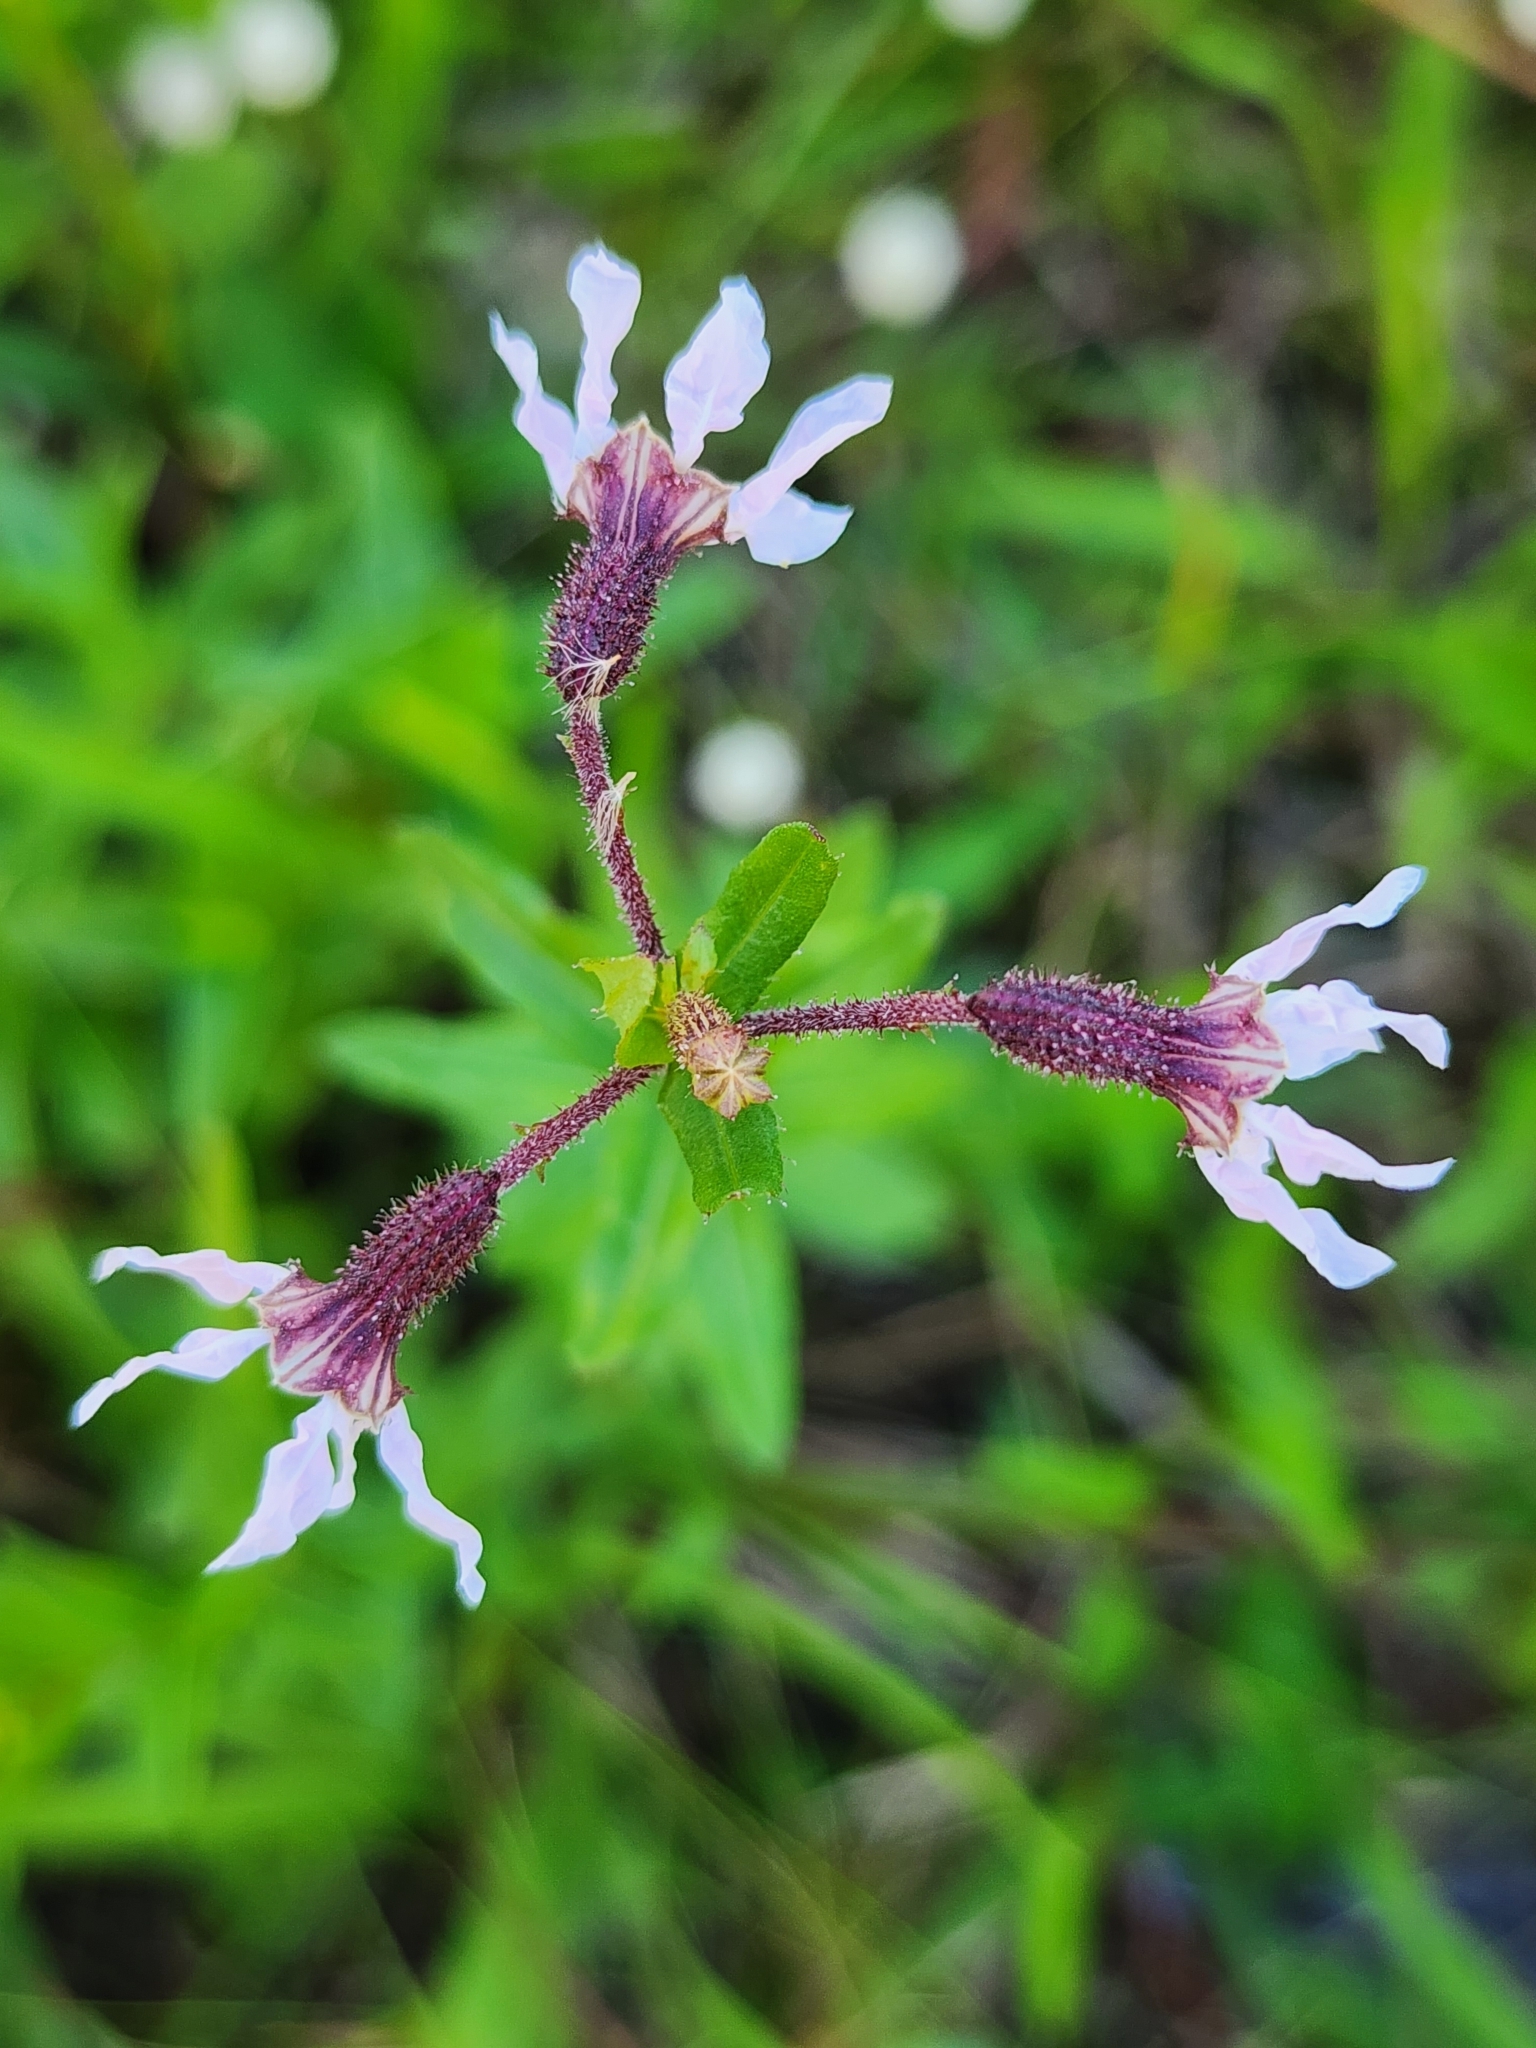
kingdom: Plantae
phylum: Tracheophyta
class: Magnoliopsida
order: Myrtales
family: Lythraceae
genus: Cuphea
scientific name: Cuphea aspera
